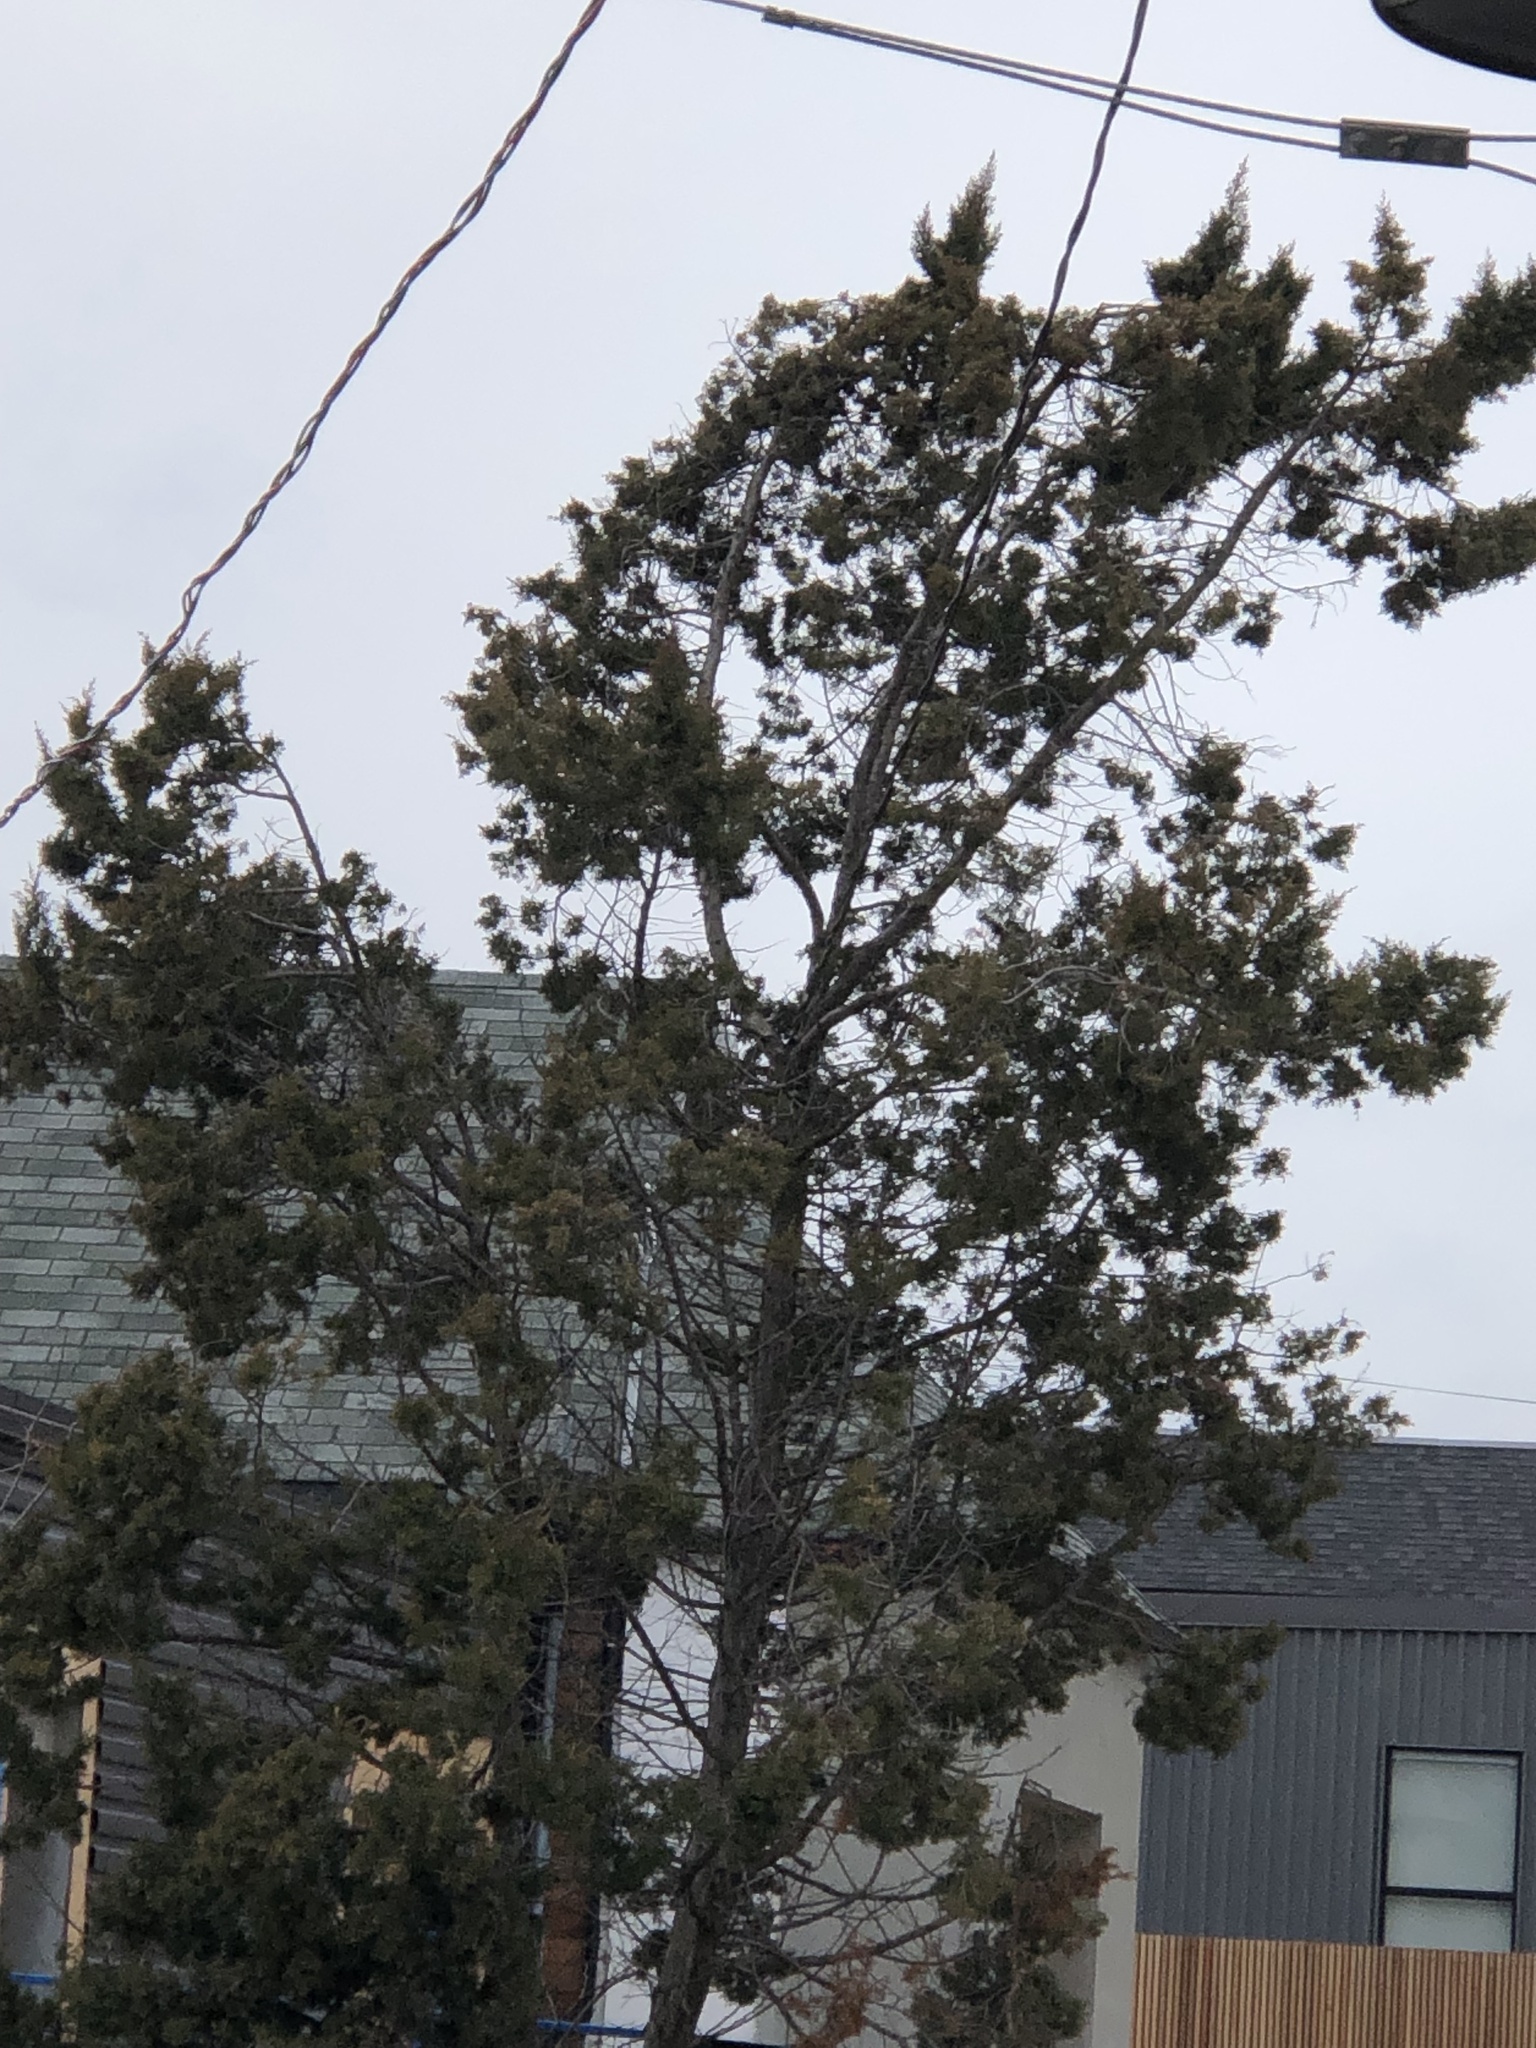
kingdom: Plantae
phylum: Tracheophyta
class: Pinopsida
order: Pinales
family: Cupressaceae
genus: Juniperus
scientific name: Juniperus virginiana
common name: Red juniper
